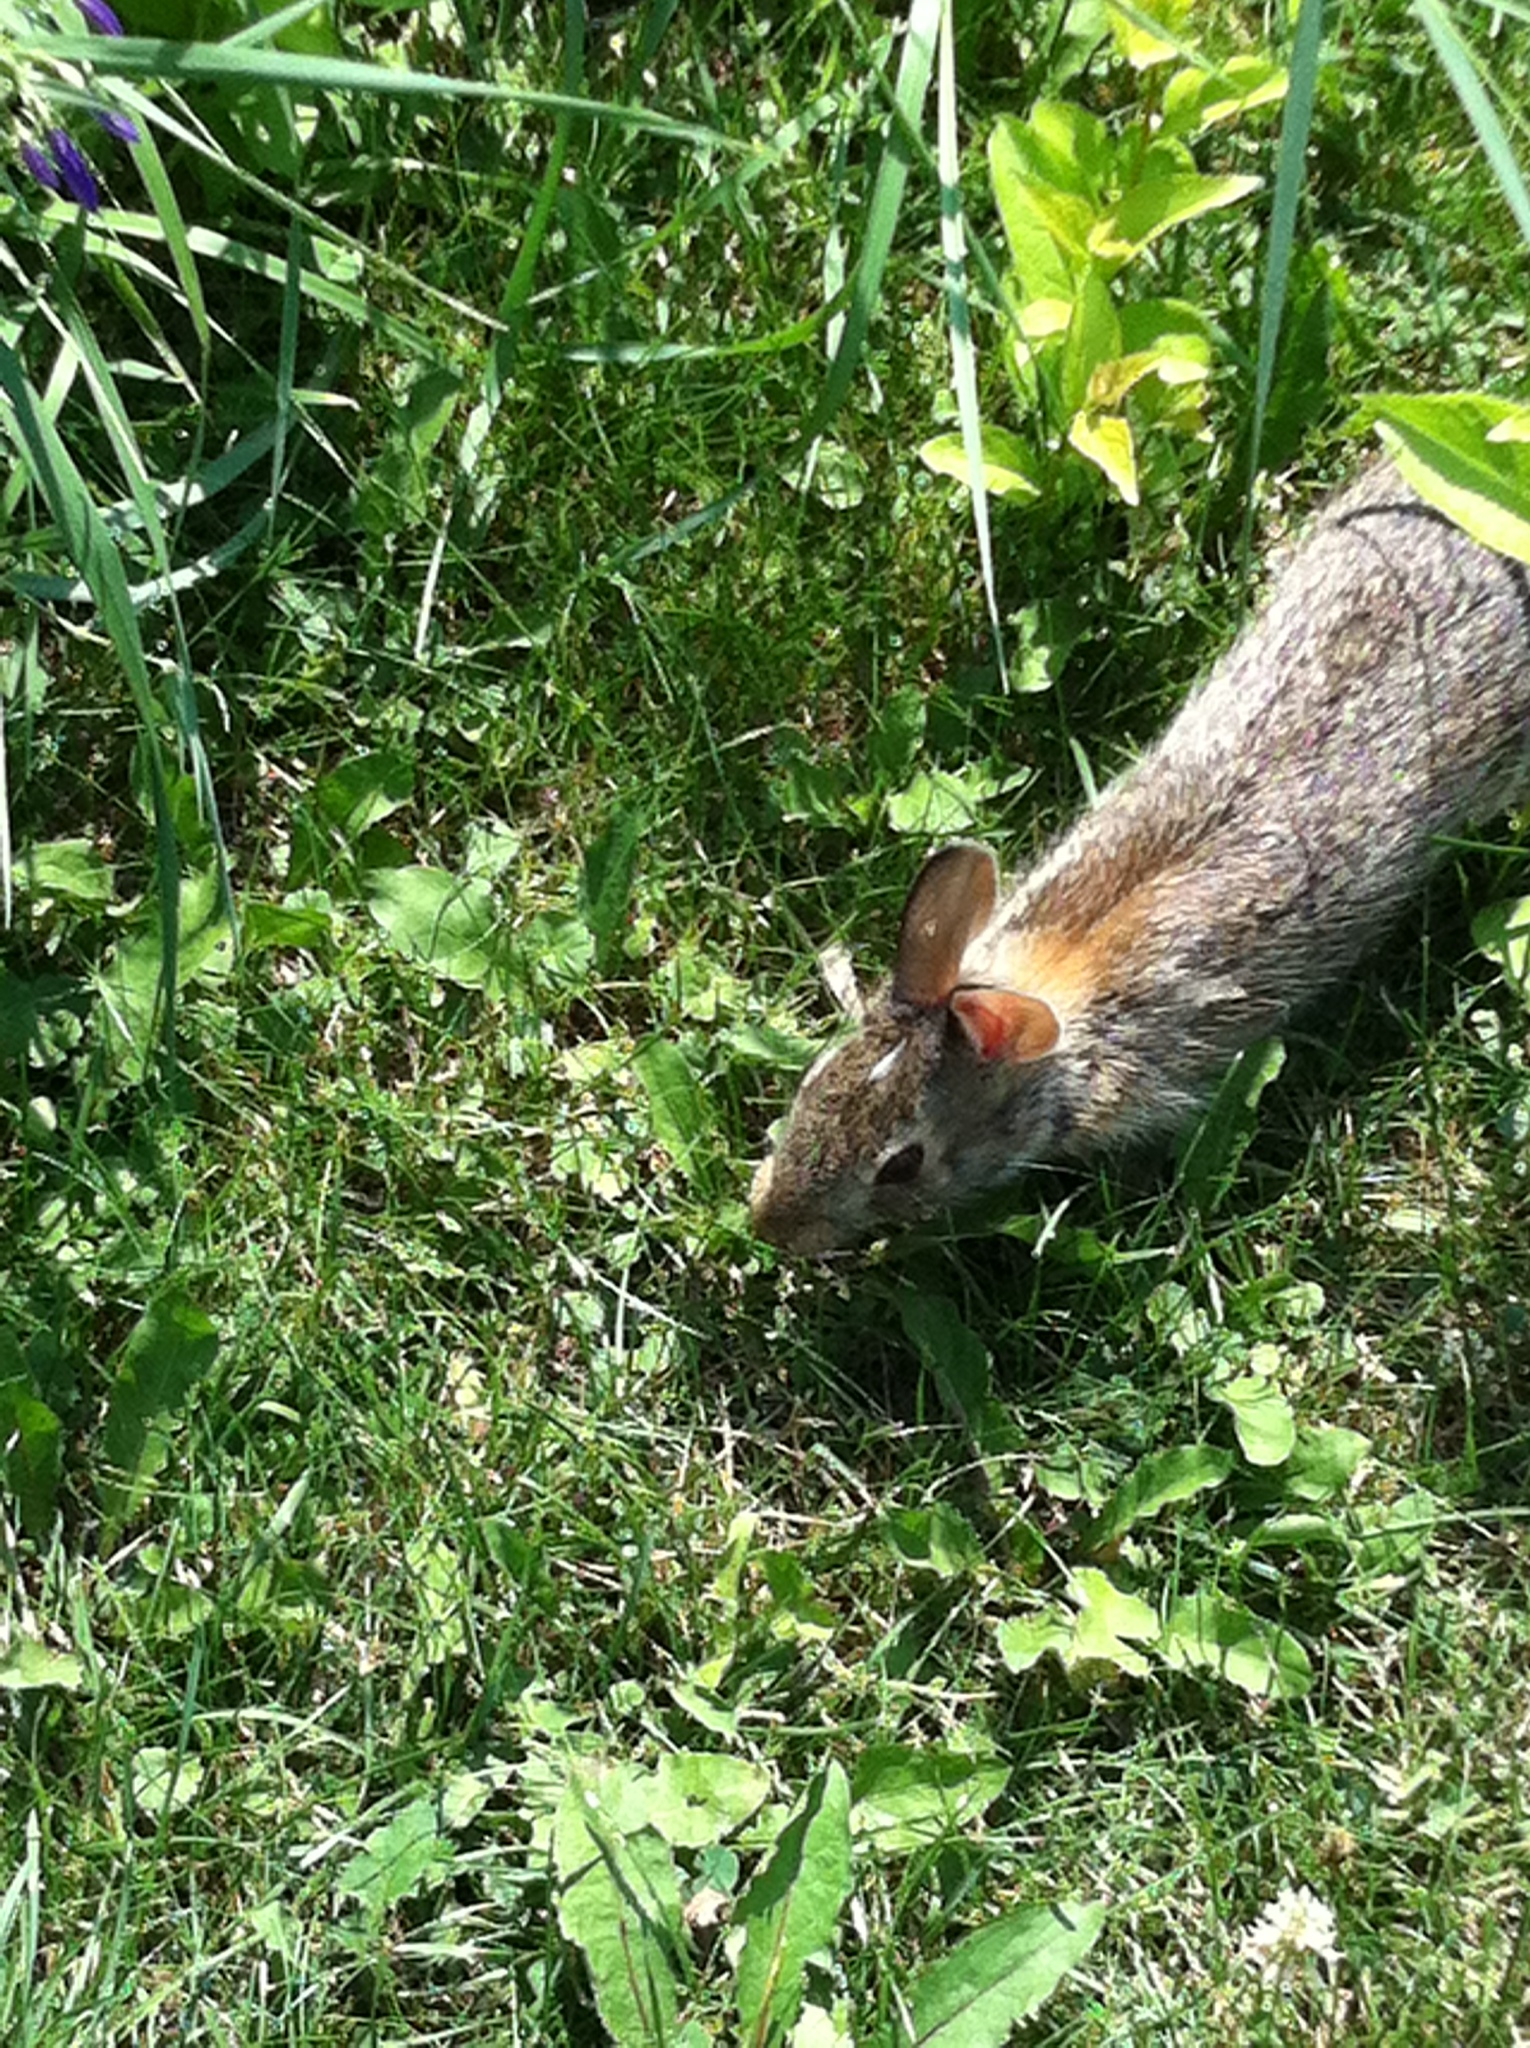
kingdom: Animalia
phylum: Chordata
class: Mammalia
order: Lagomorpha
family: Leporidae
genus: Sylvilagus
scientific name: Sylvilagus floridanus
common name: Eastern cottontail
